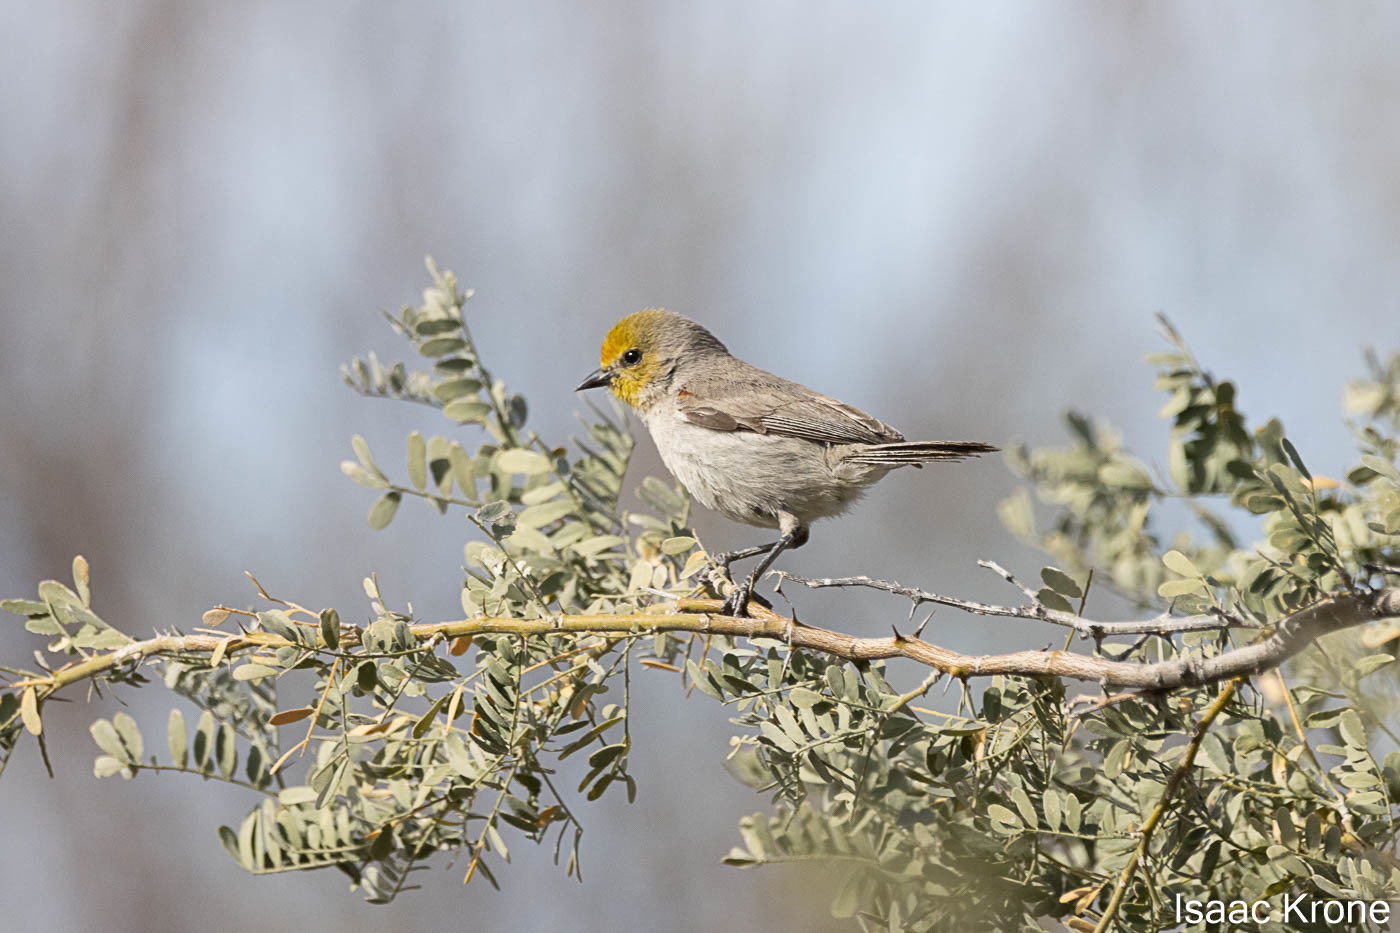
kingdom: Animalia
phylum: Chordata
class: Aves
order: Passeriformes
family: Remizidae
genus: Auriparus
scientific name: Auriparus flaviceps
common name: Verdin
